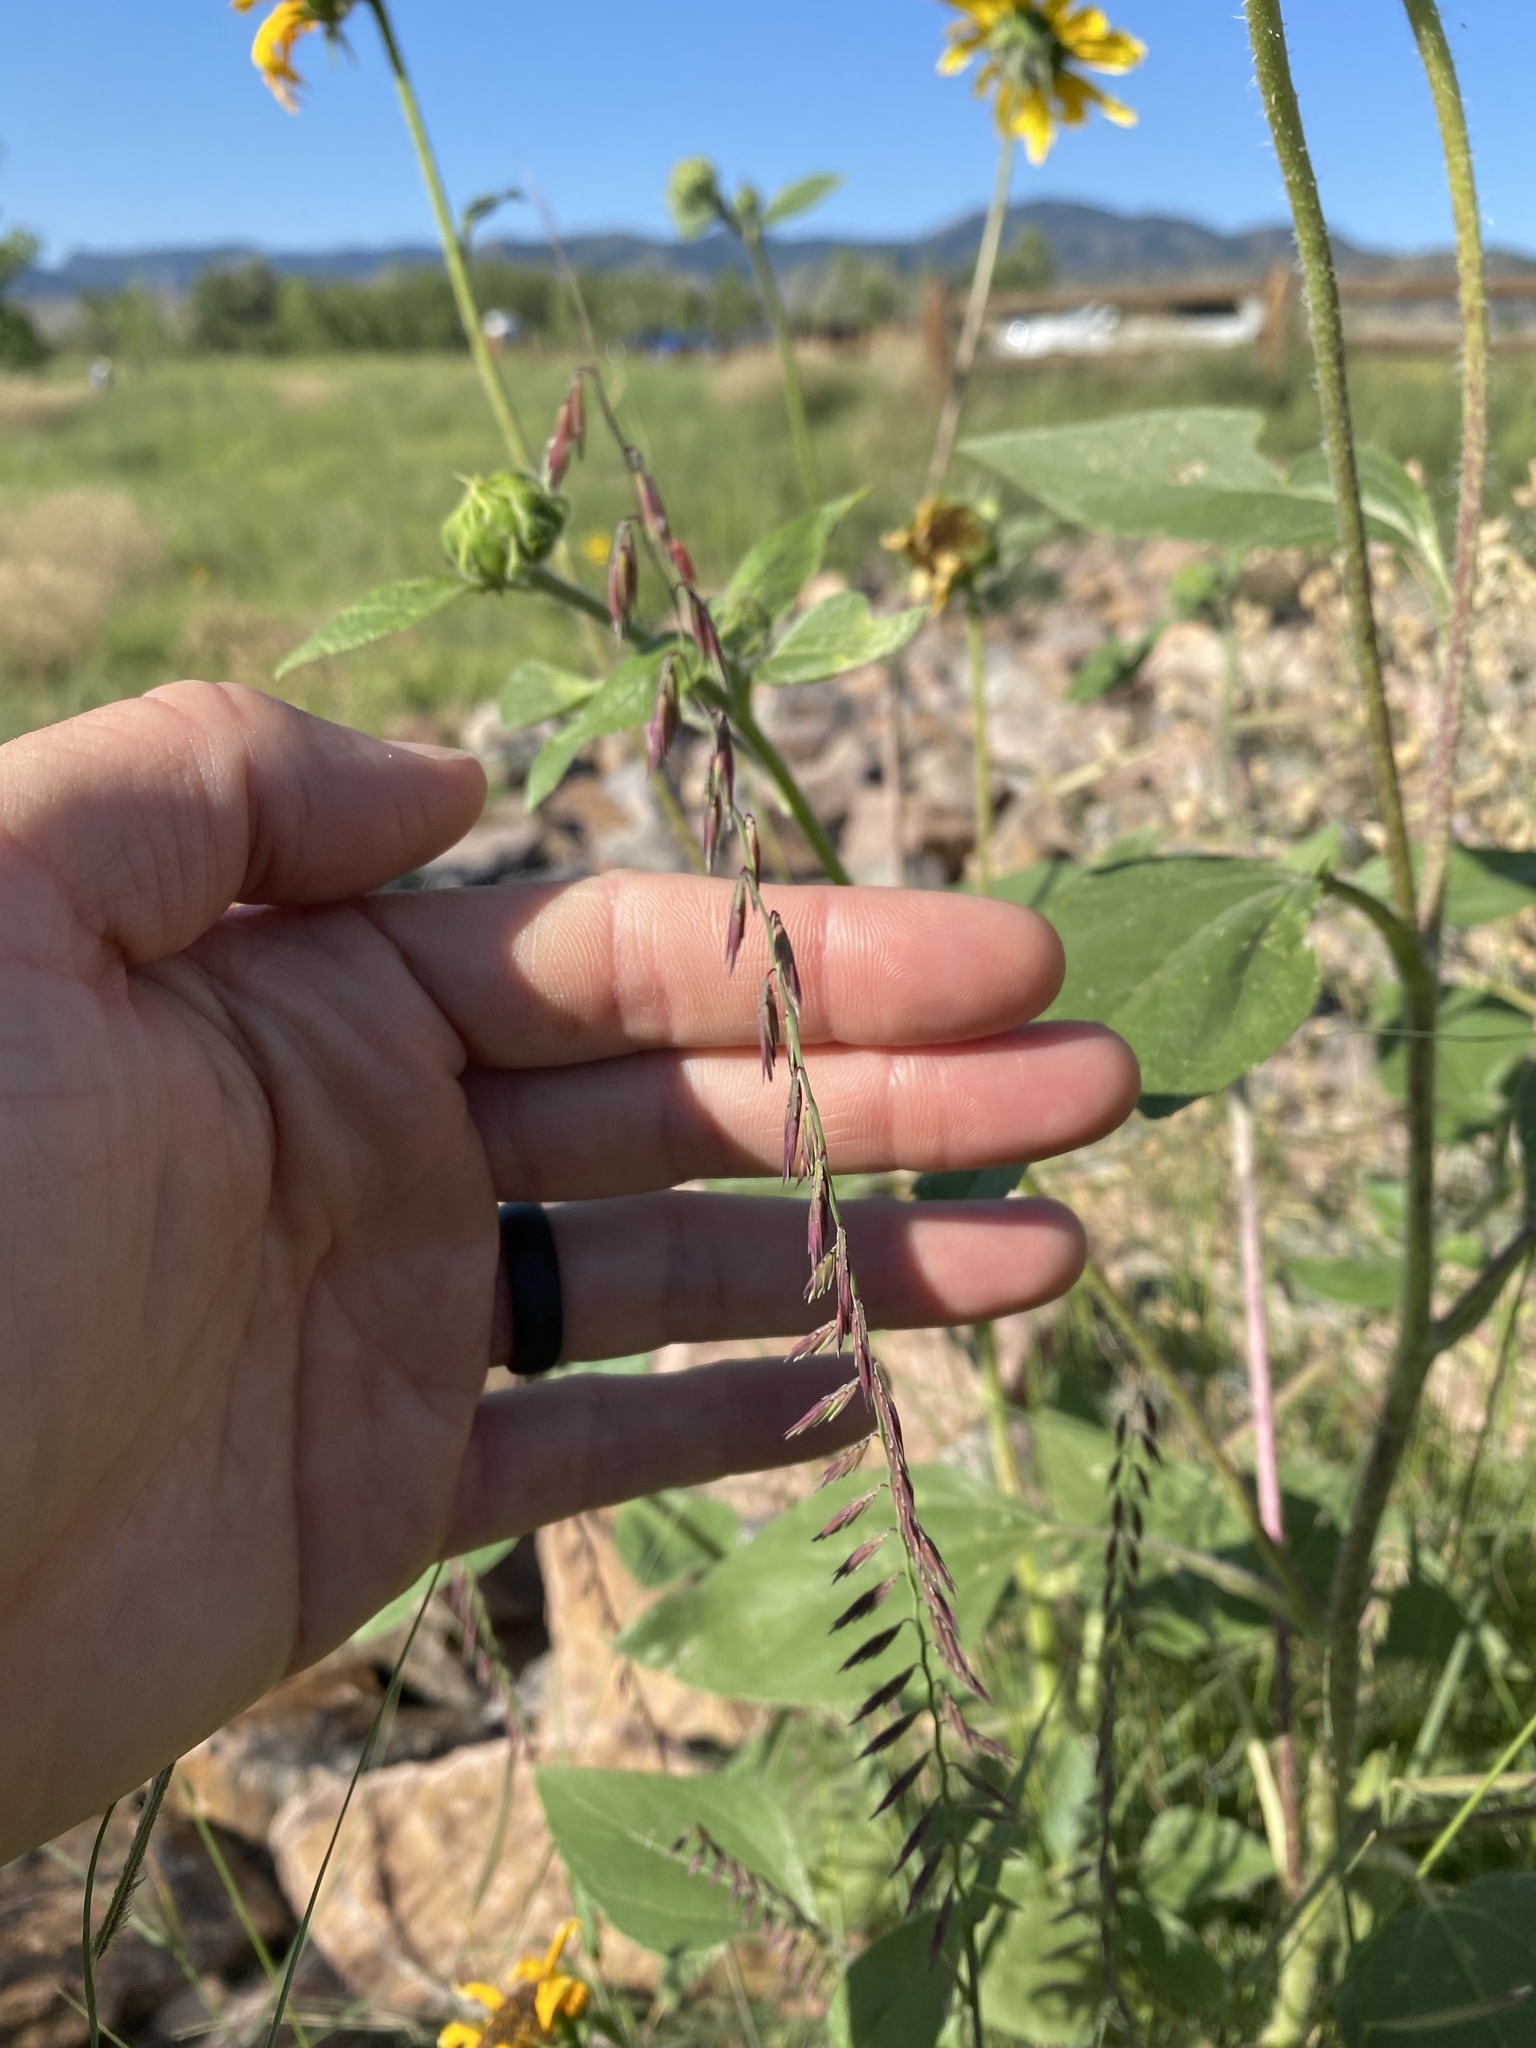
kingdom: Plantae
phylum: Tracheophyta
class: Liliopsida
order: Poales
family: Poaceae
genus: Bouteloua
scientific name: Bouteloua curtipendula
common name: Side-oats grama
